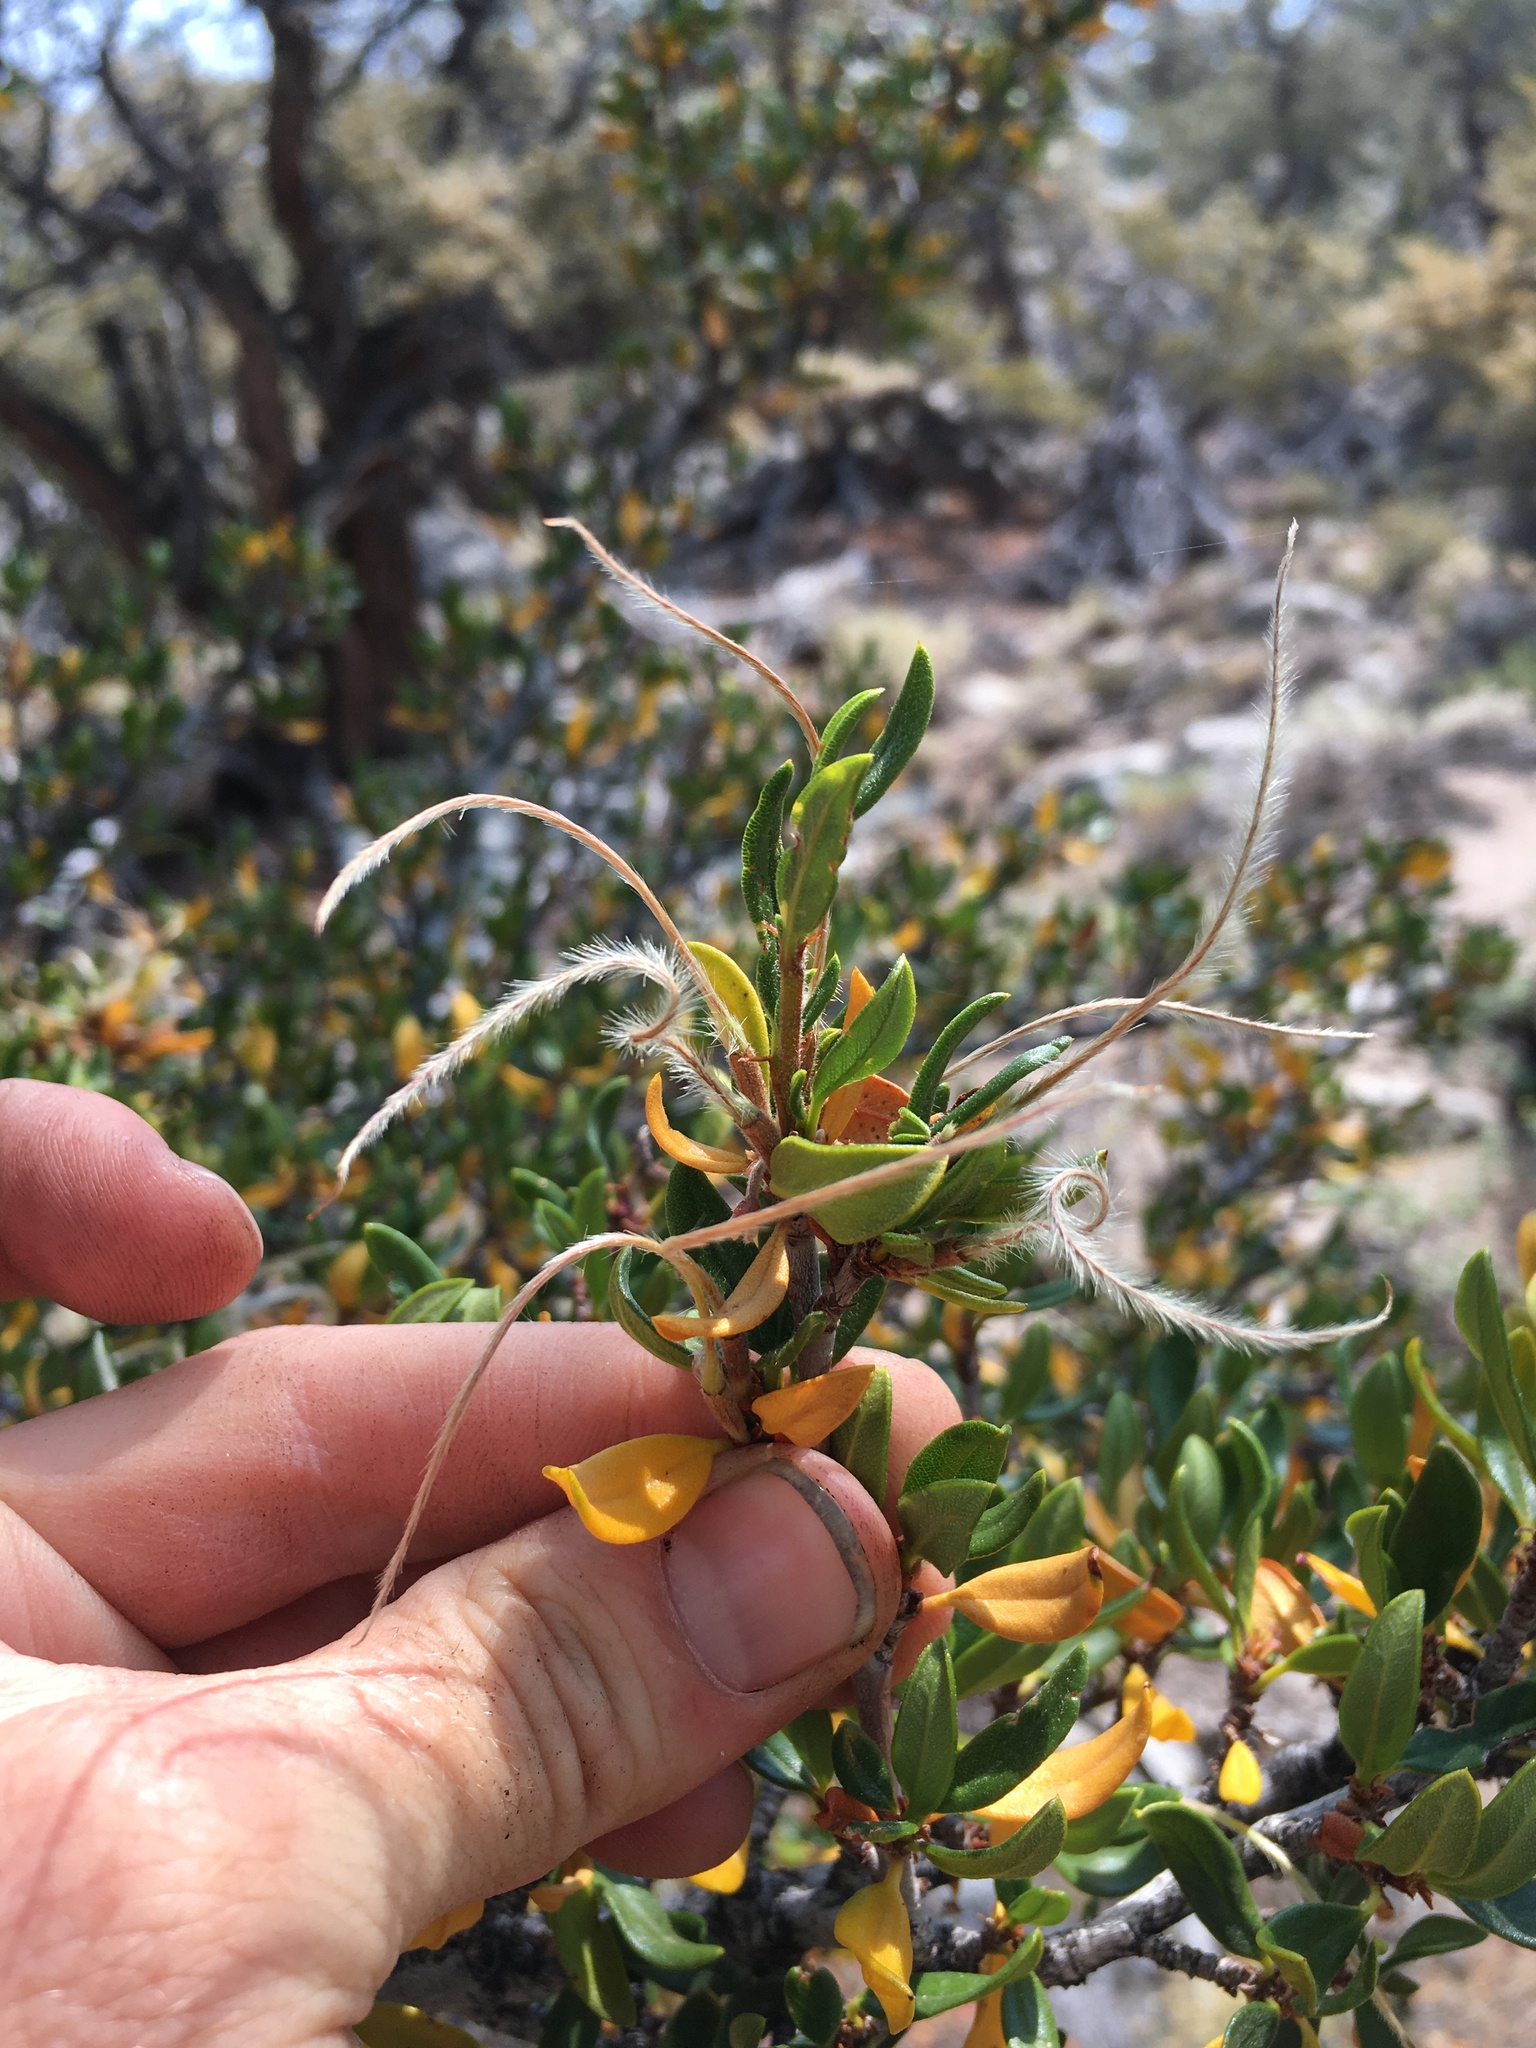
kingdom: Plantae
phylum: Tracheophyta
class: Magnoliopsida
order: Rosales
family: Rosaceae
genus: Cercocarpus
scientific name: Cercocarpus ledifolius
